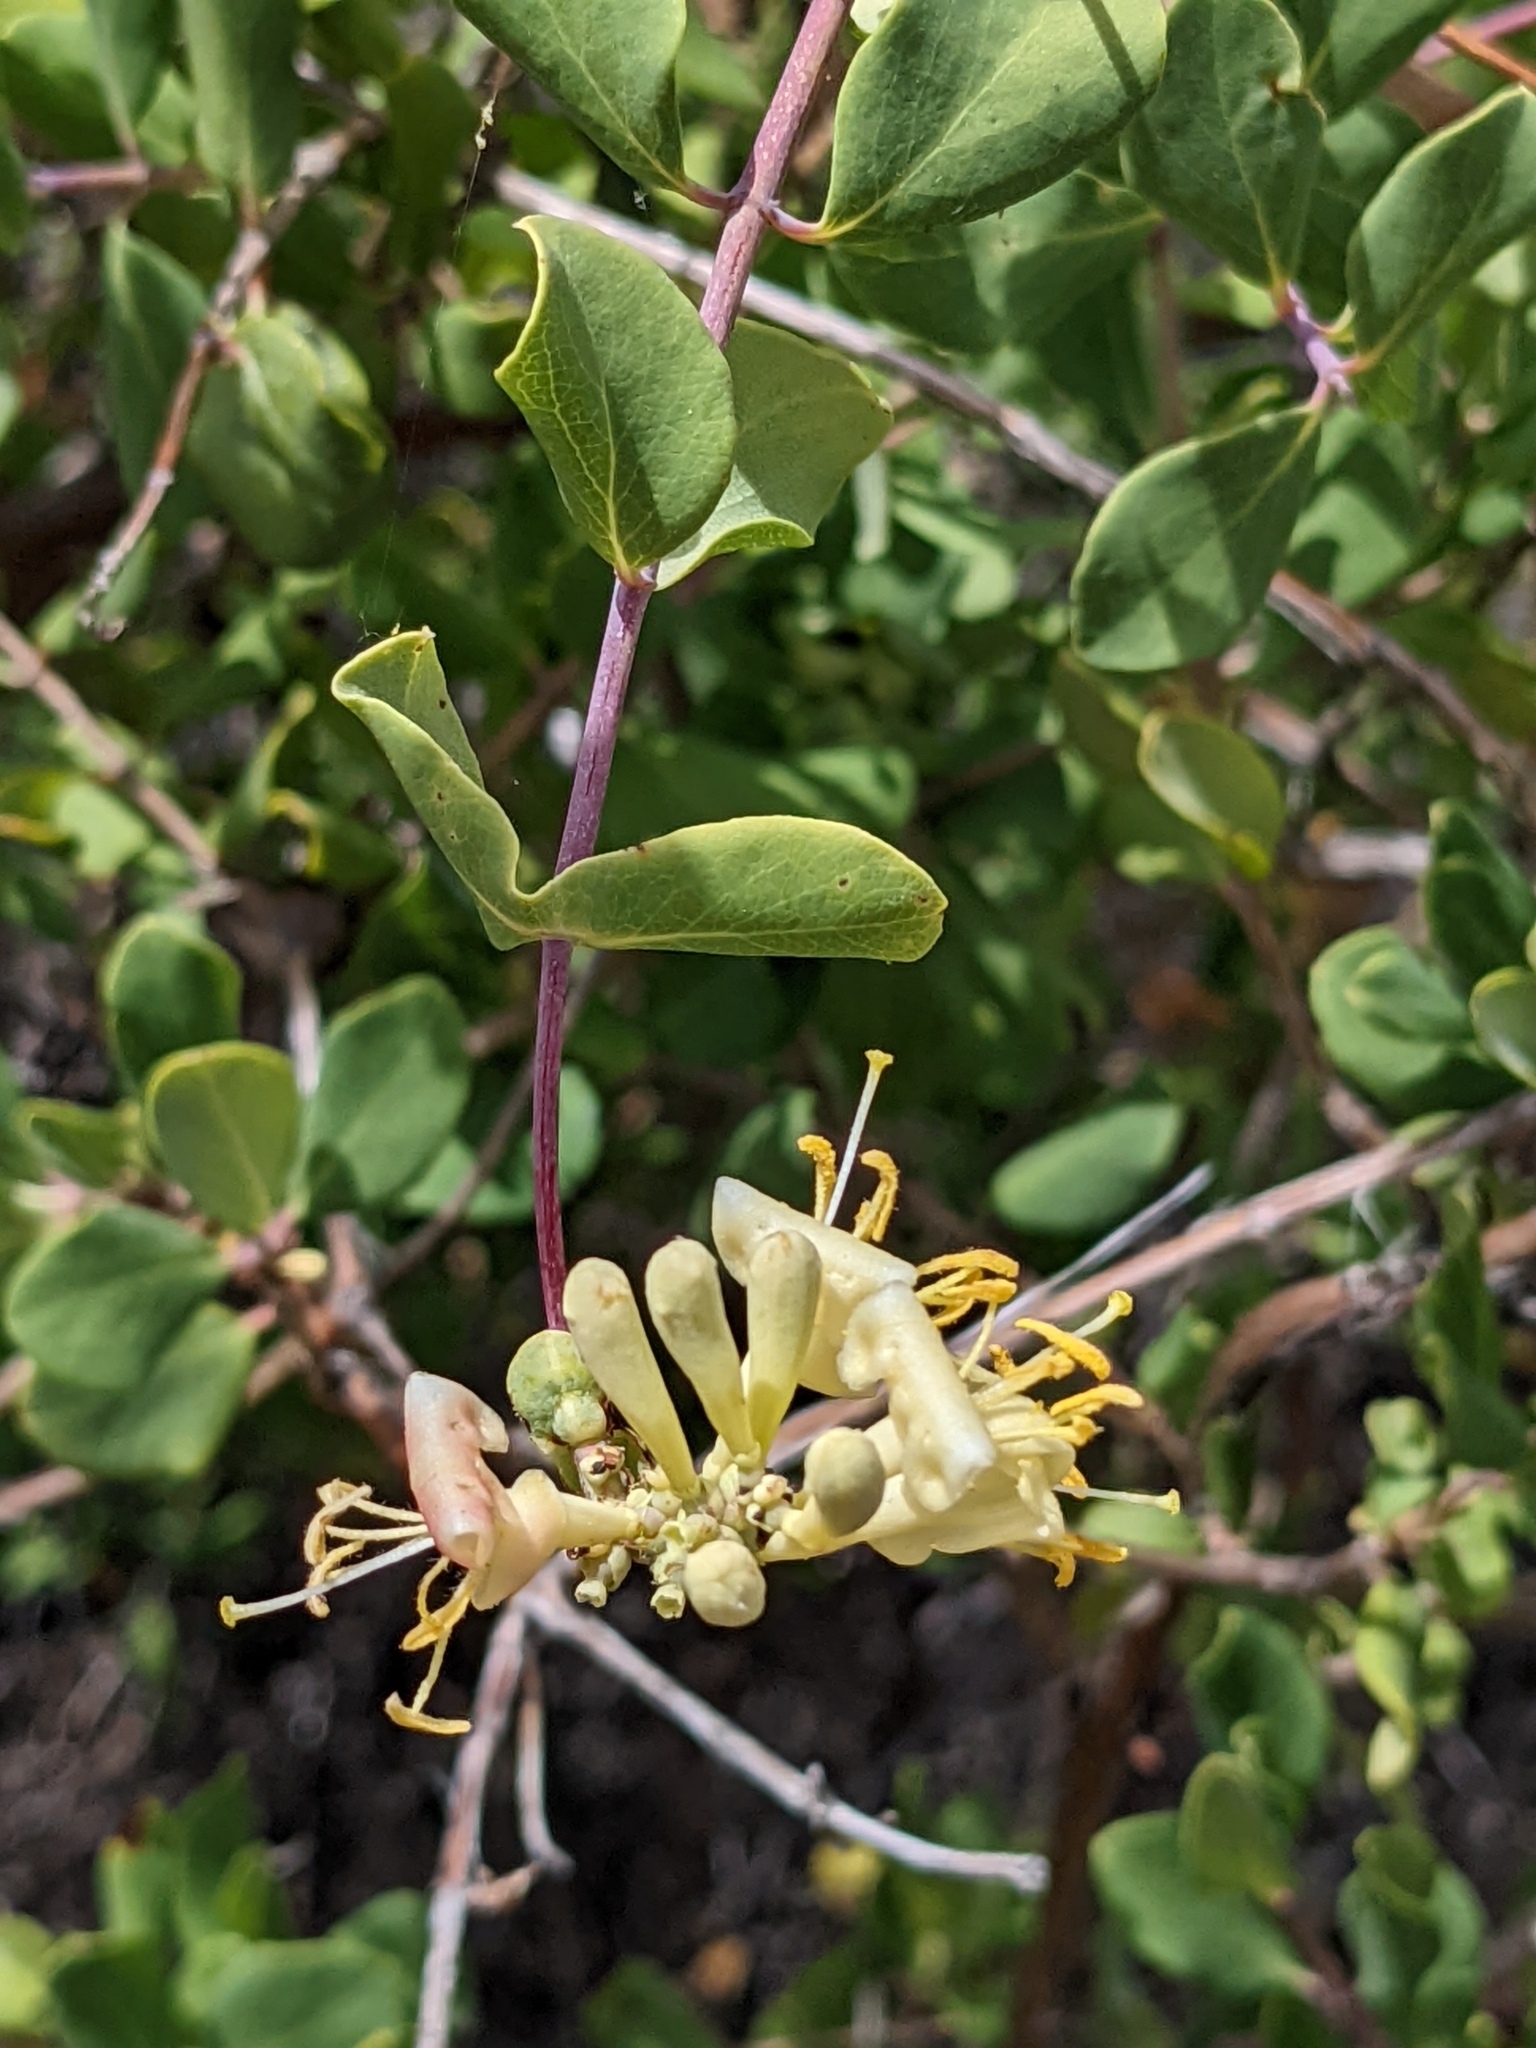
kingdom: Plantae
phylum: Tracheophyta
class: Magnoliopsida
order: Dipsacales
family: Caprifoliaceae
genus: Lonicera
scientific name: Lonicera interrupta
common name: Chaparral honeysuckle
